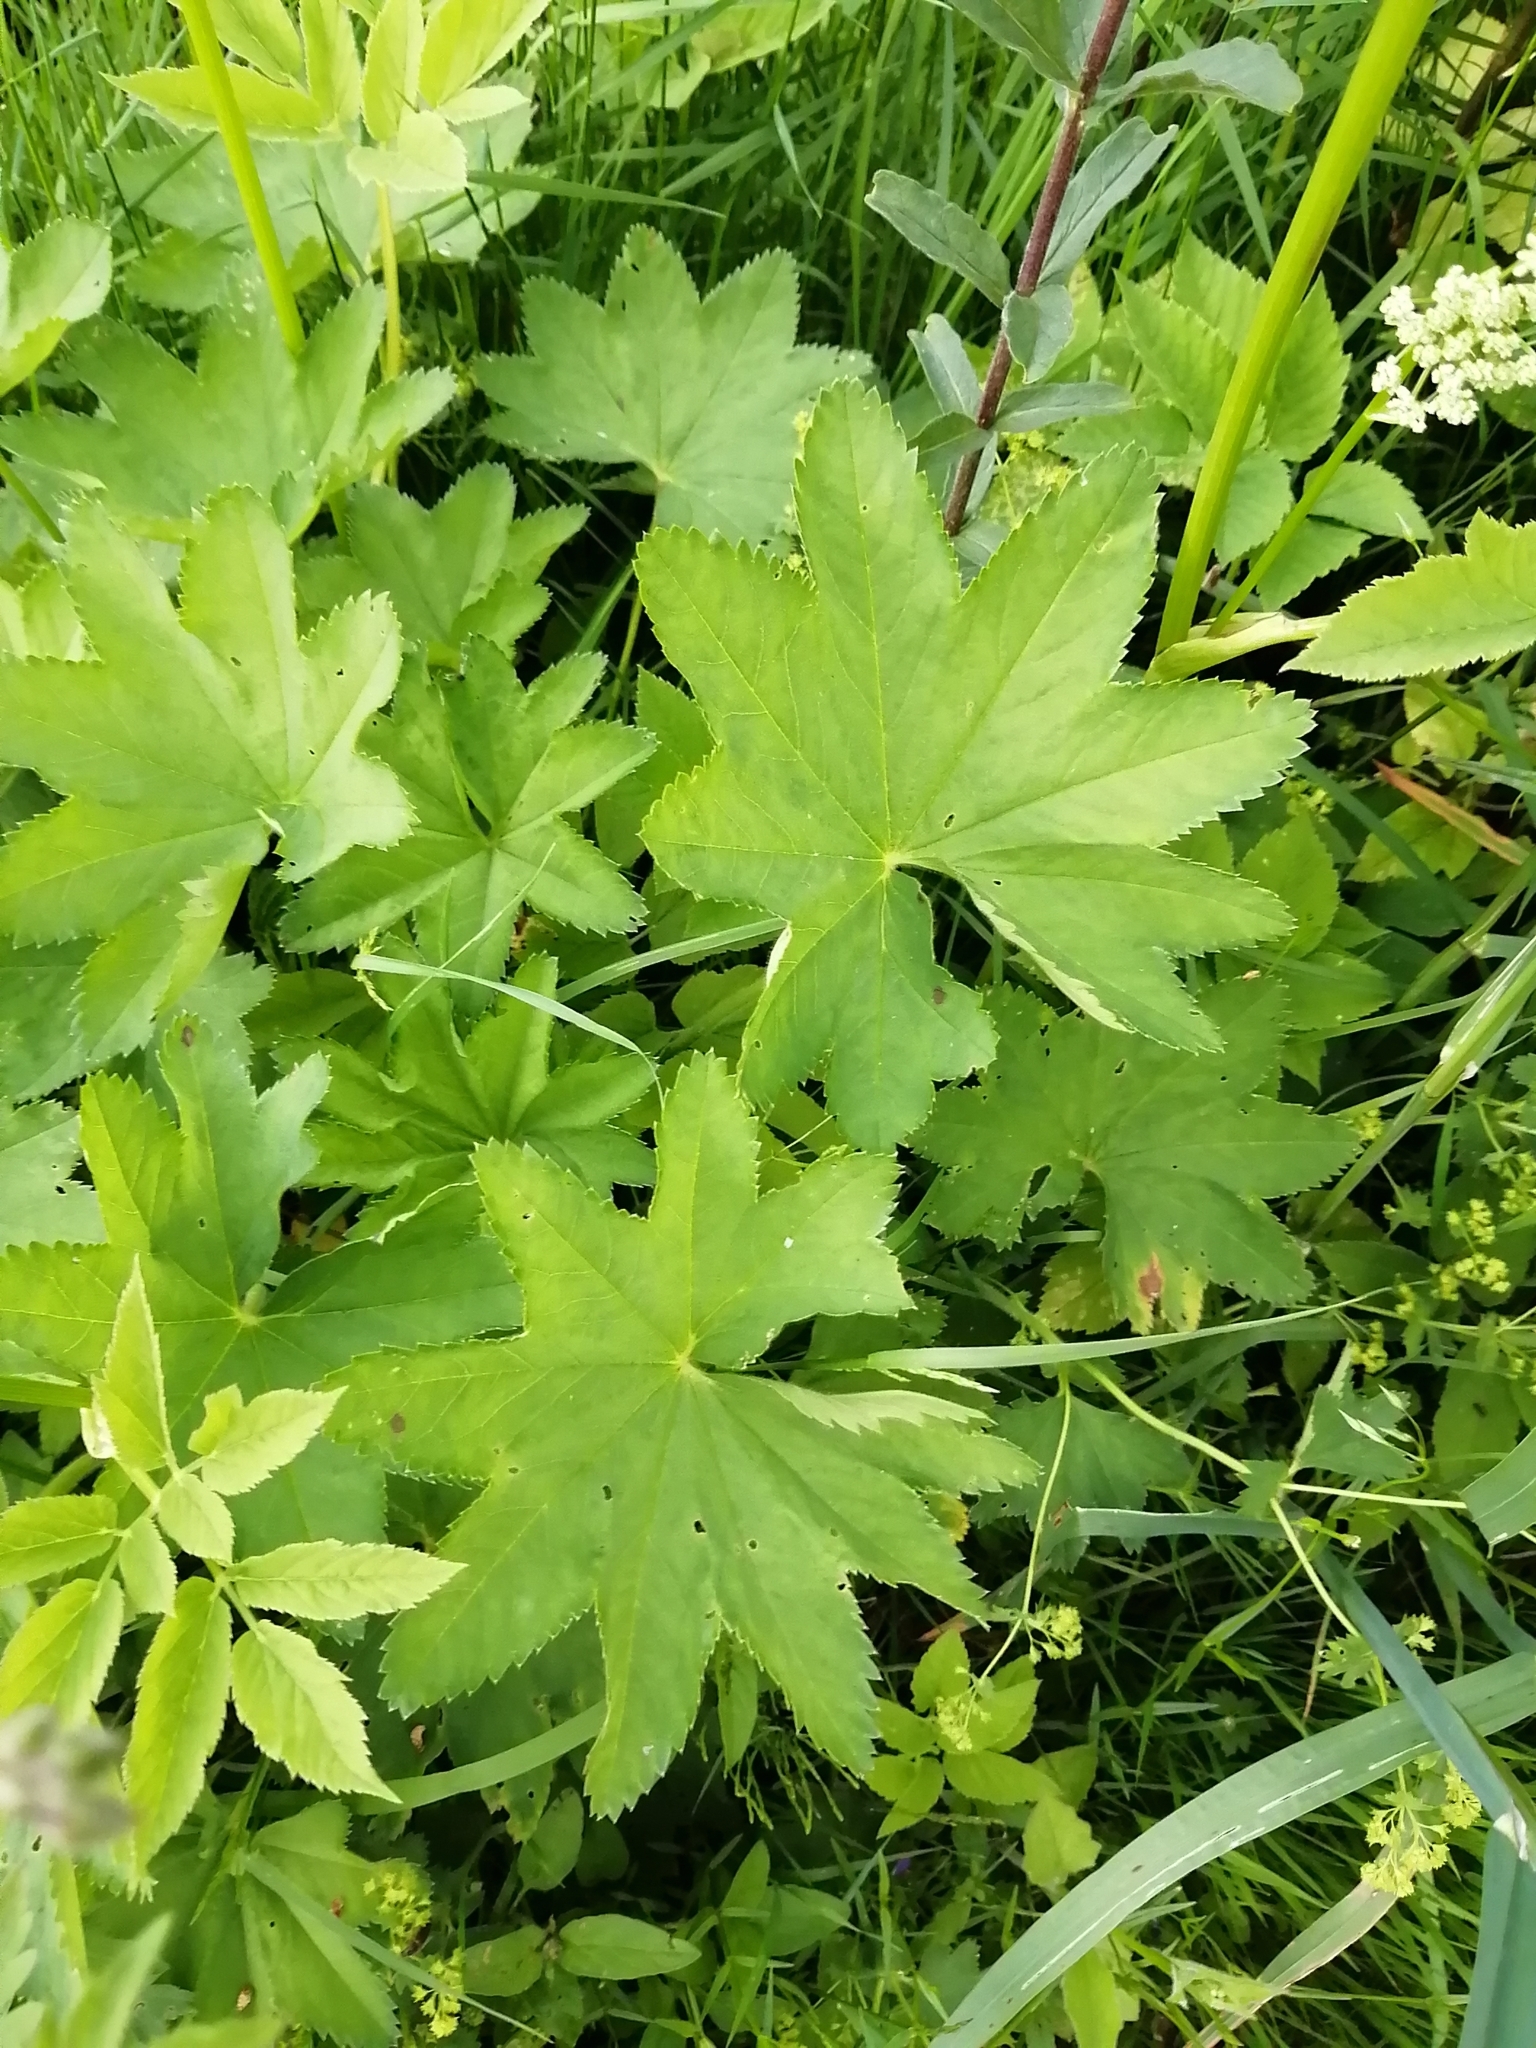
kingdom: Plantae
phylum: Tracheophyta
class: Magnoliopsida
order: Rosales
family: Rosaceae
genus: Alchemilla
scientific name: Alchemilla
